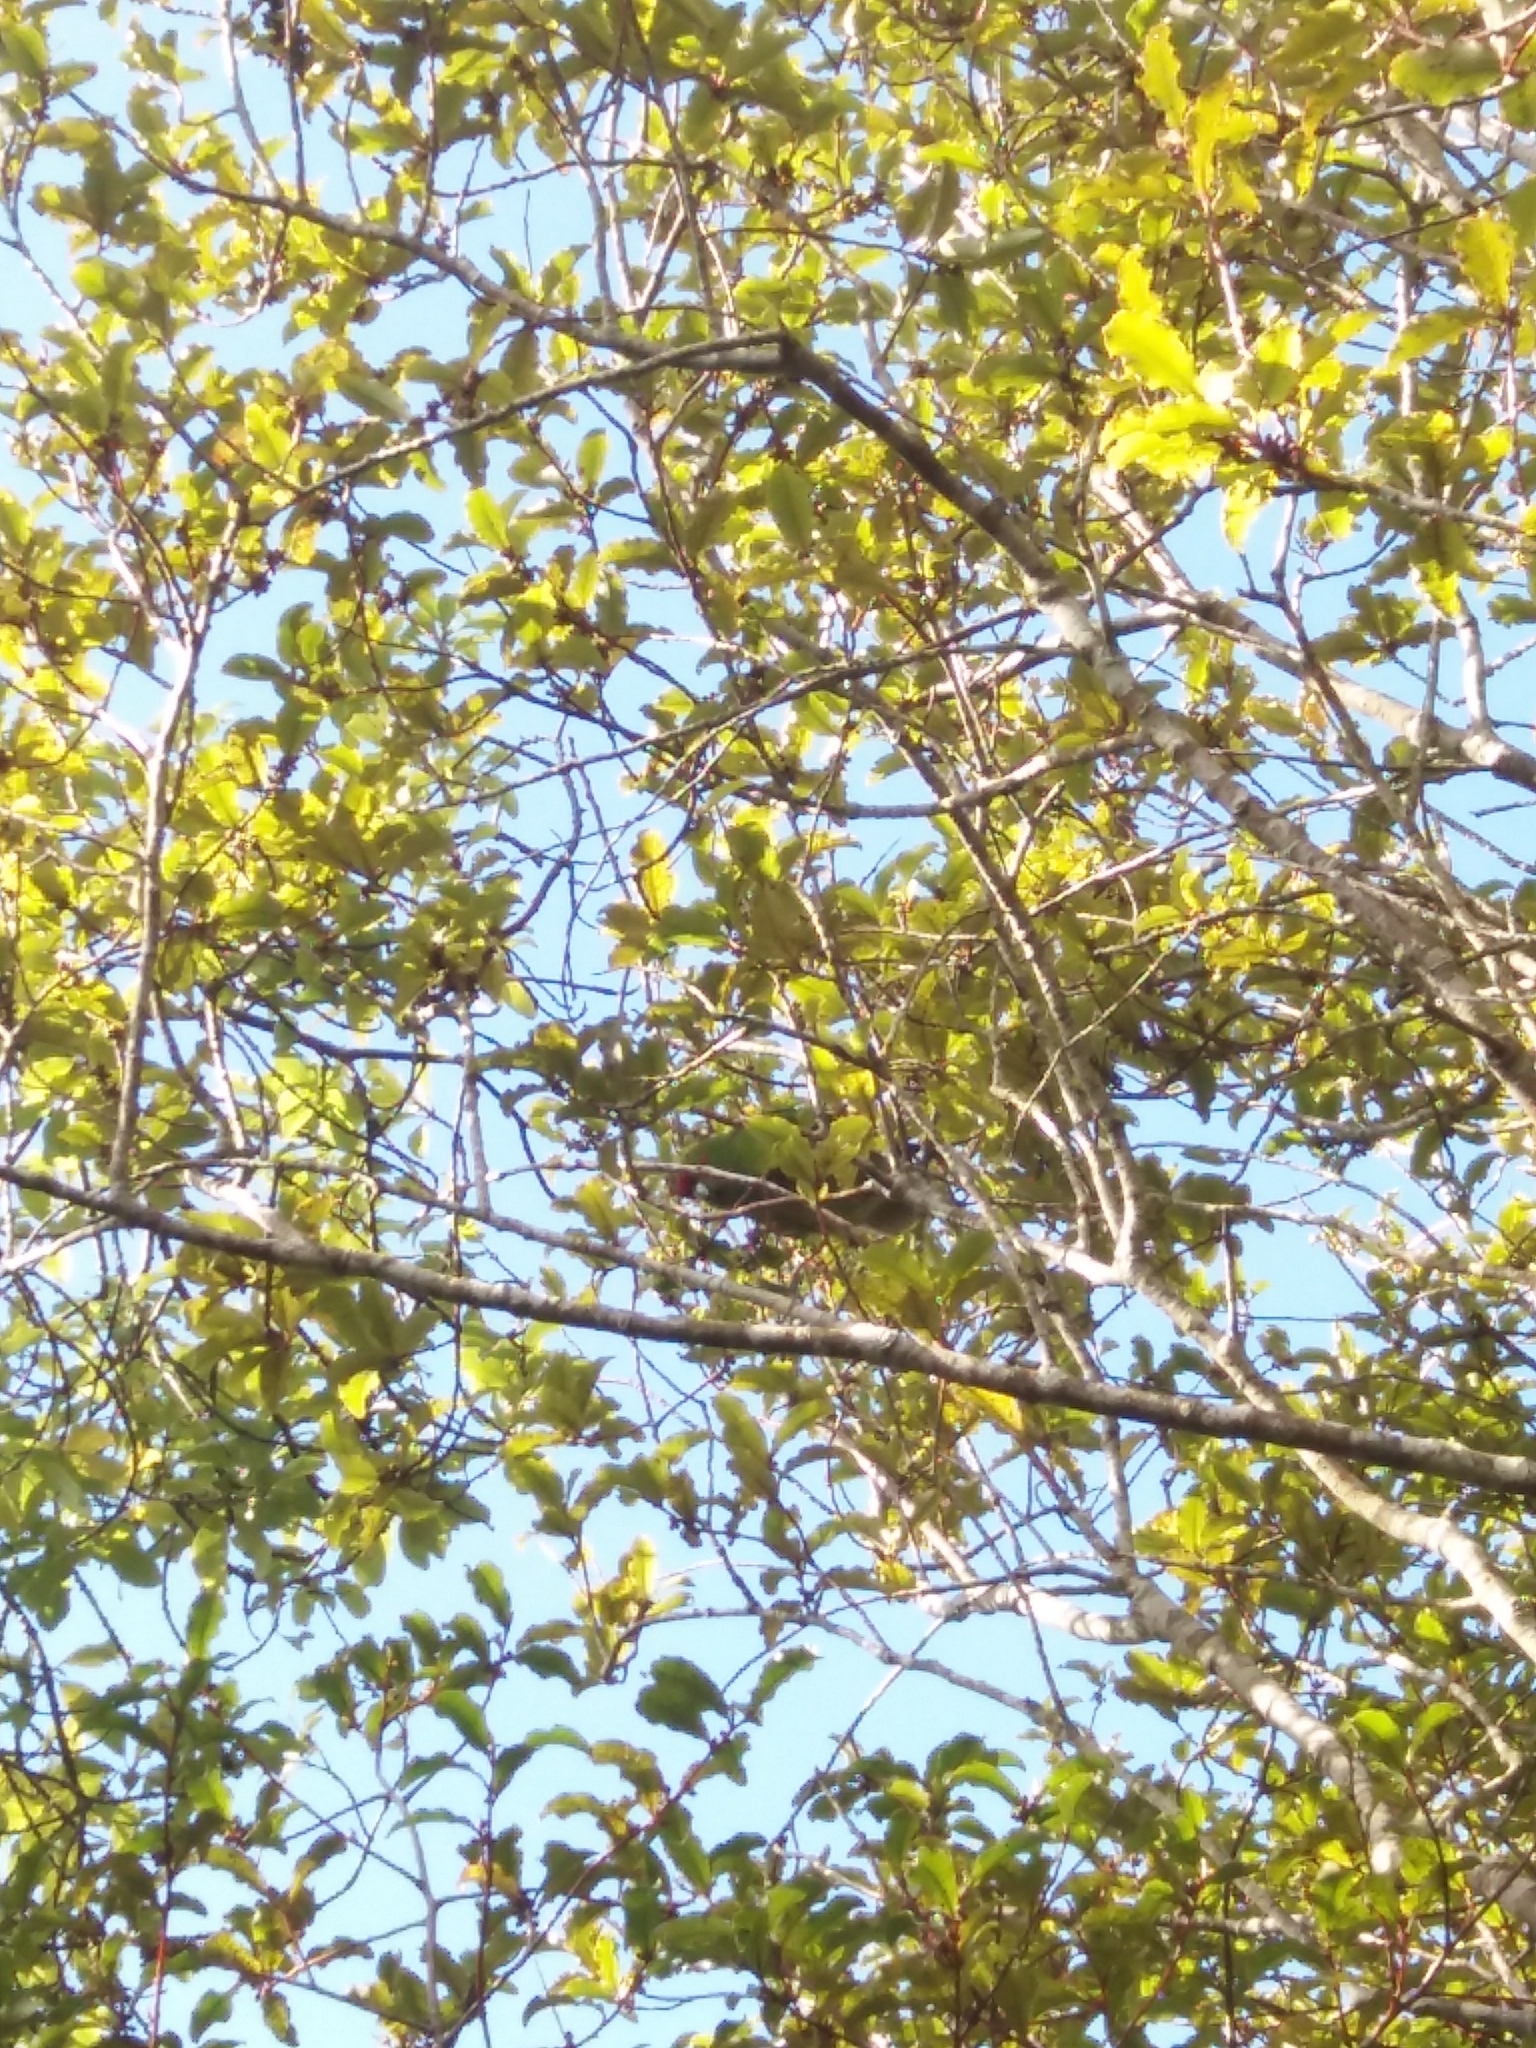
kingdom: Animalia
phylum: Chordata
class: Aves
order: Psittaciformes
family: Psittacidae
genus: Cyanoramphus
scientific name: Cyanoramphus novaezelandiae
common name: Red-fronted parakeet
